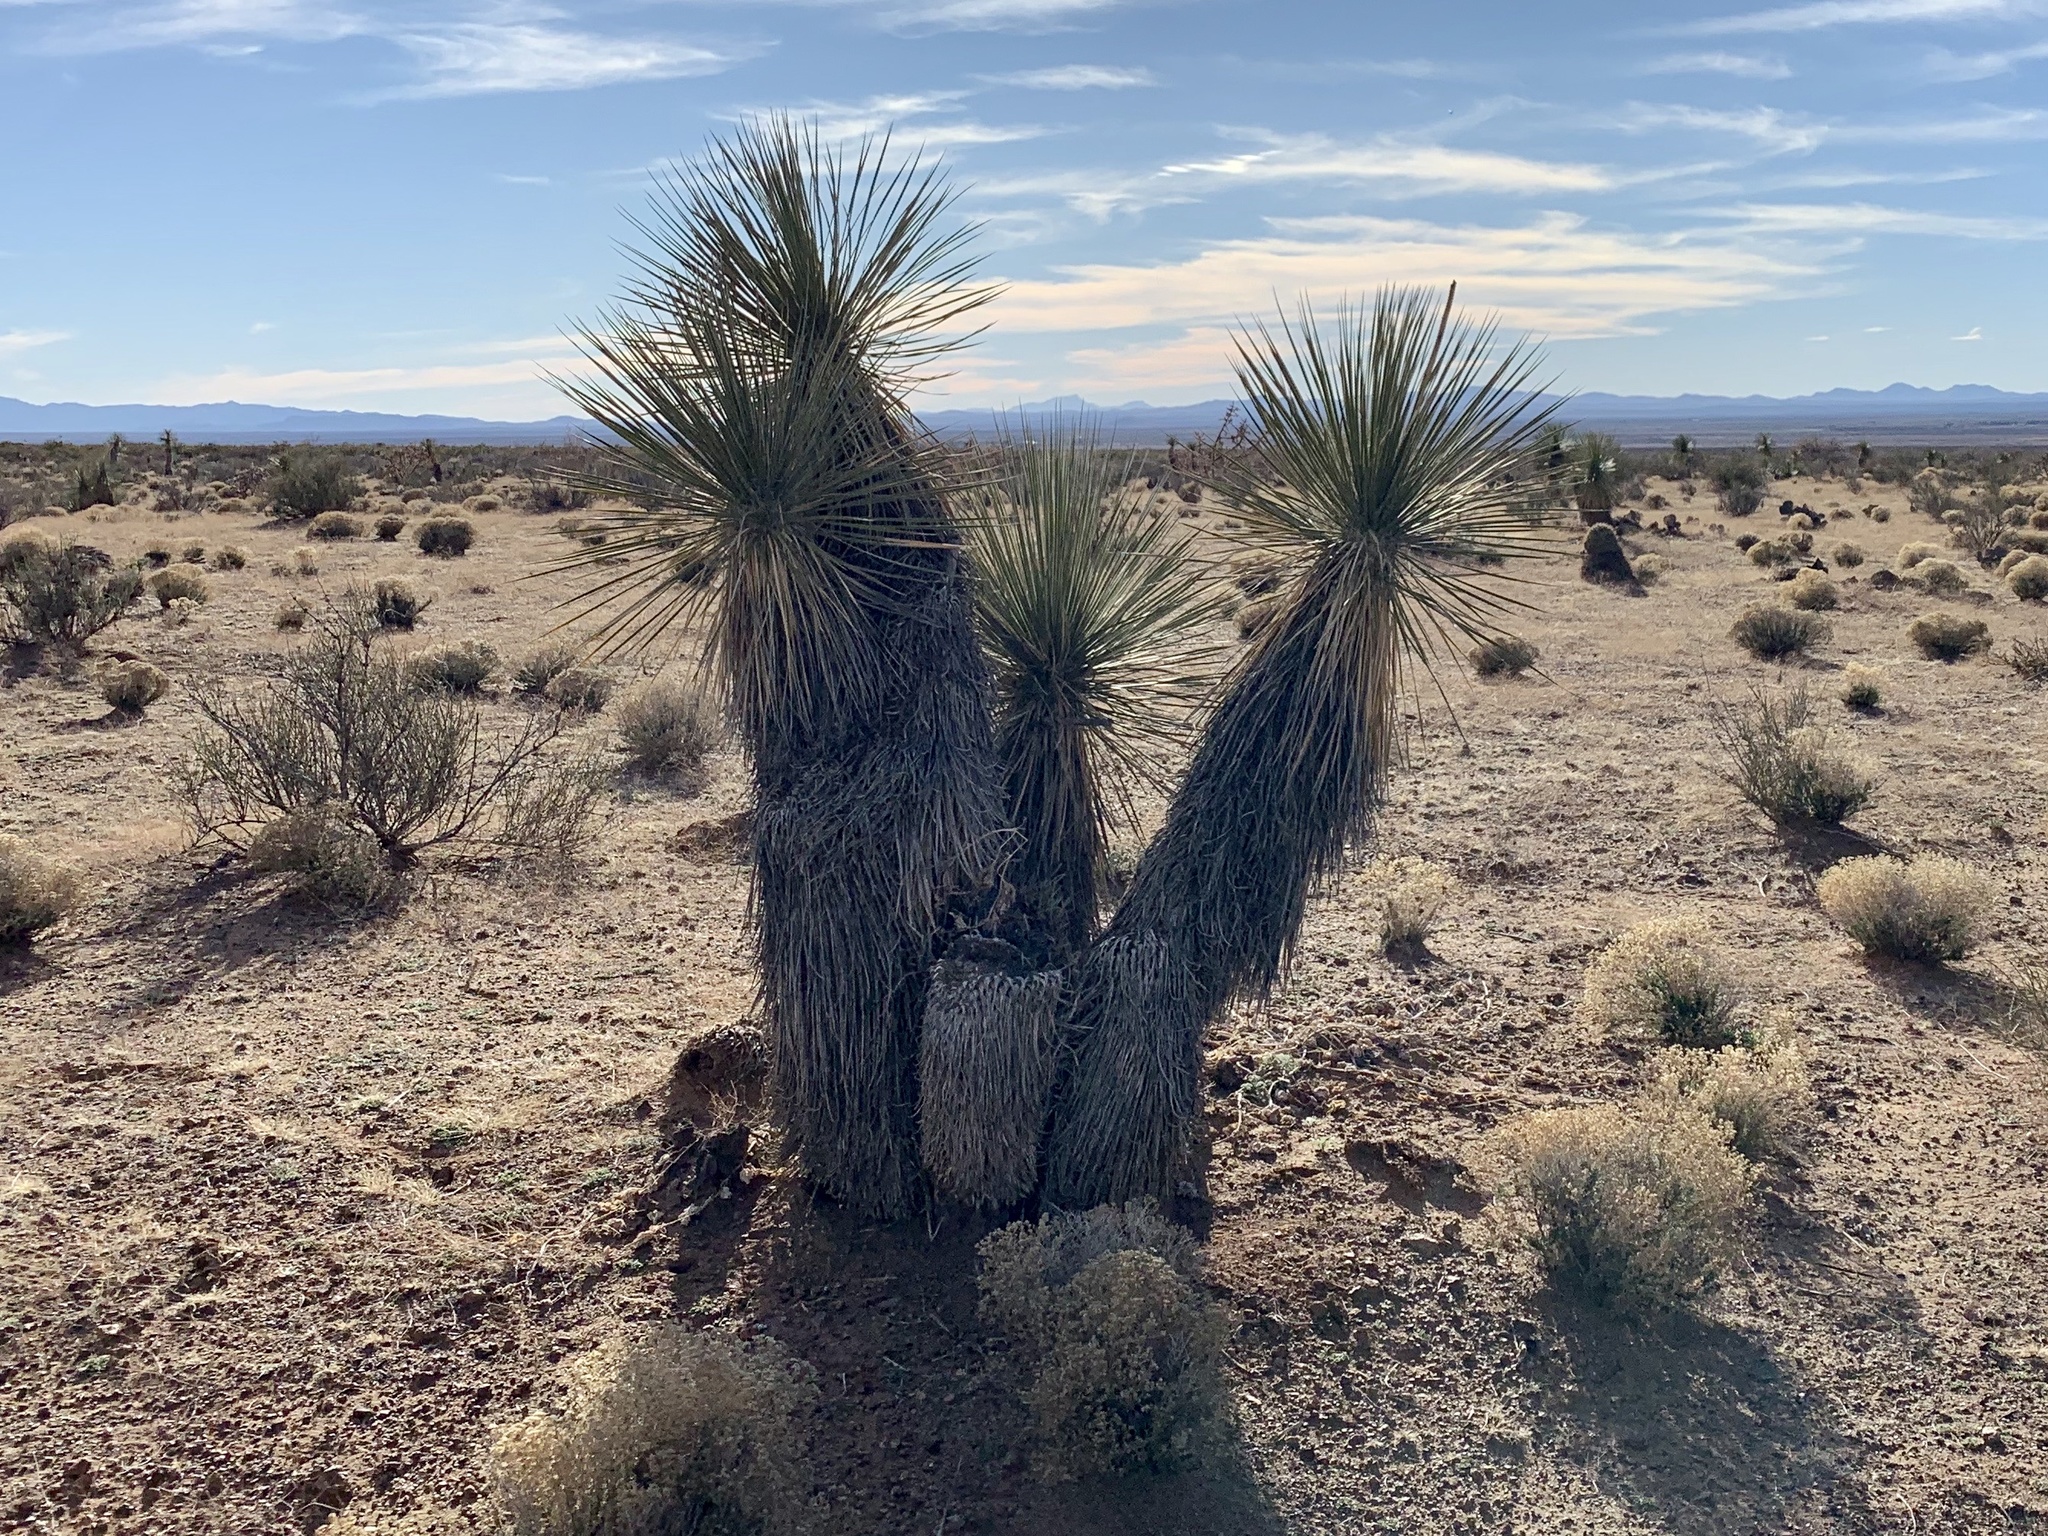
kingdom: Plantae
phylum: Tracheophyta
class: Liliopsida
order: Asparagales
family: Asparagaceae
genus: Yucca
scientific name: Yucca elata
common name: Palmella
